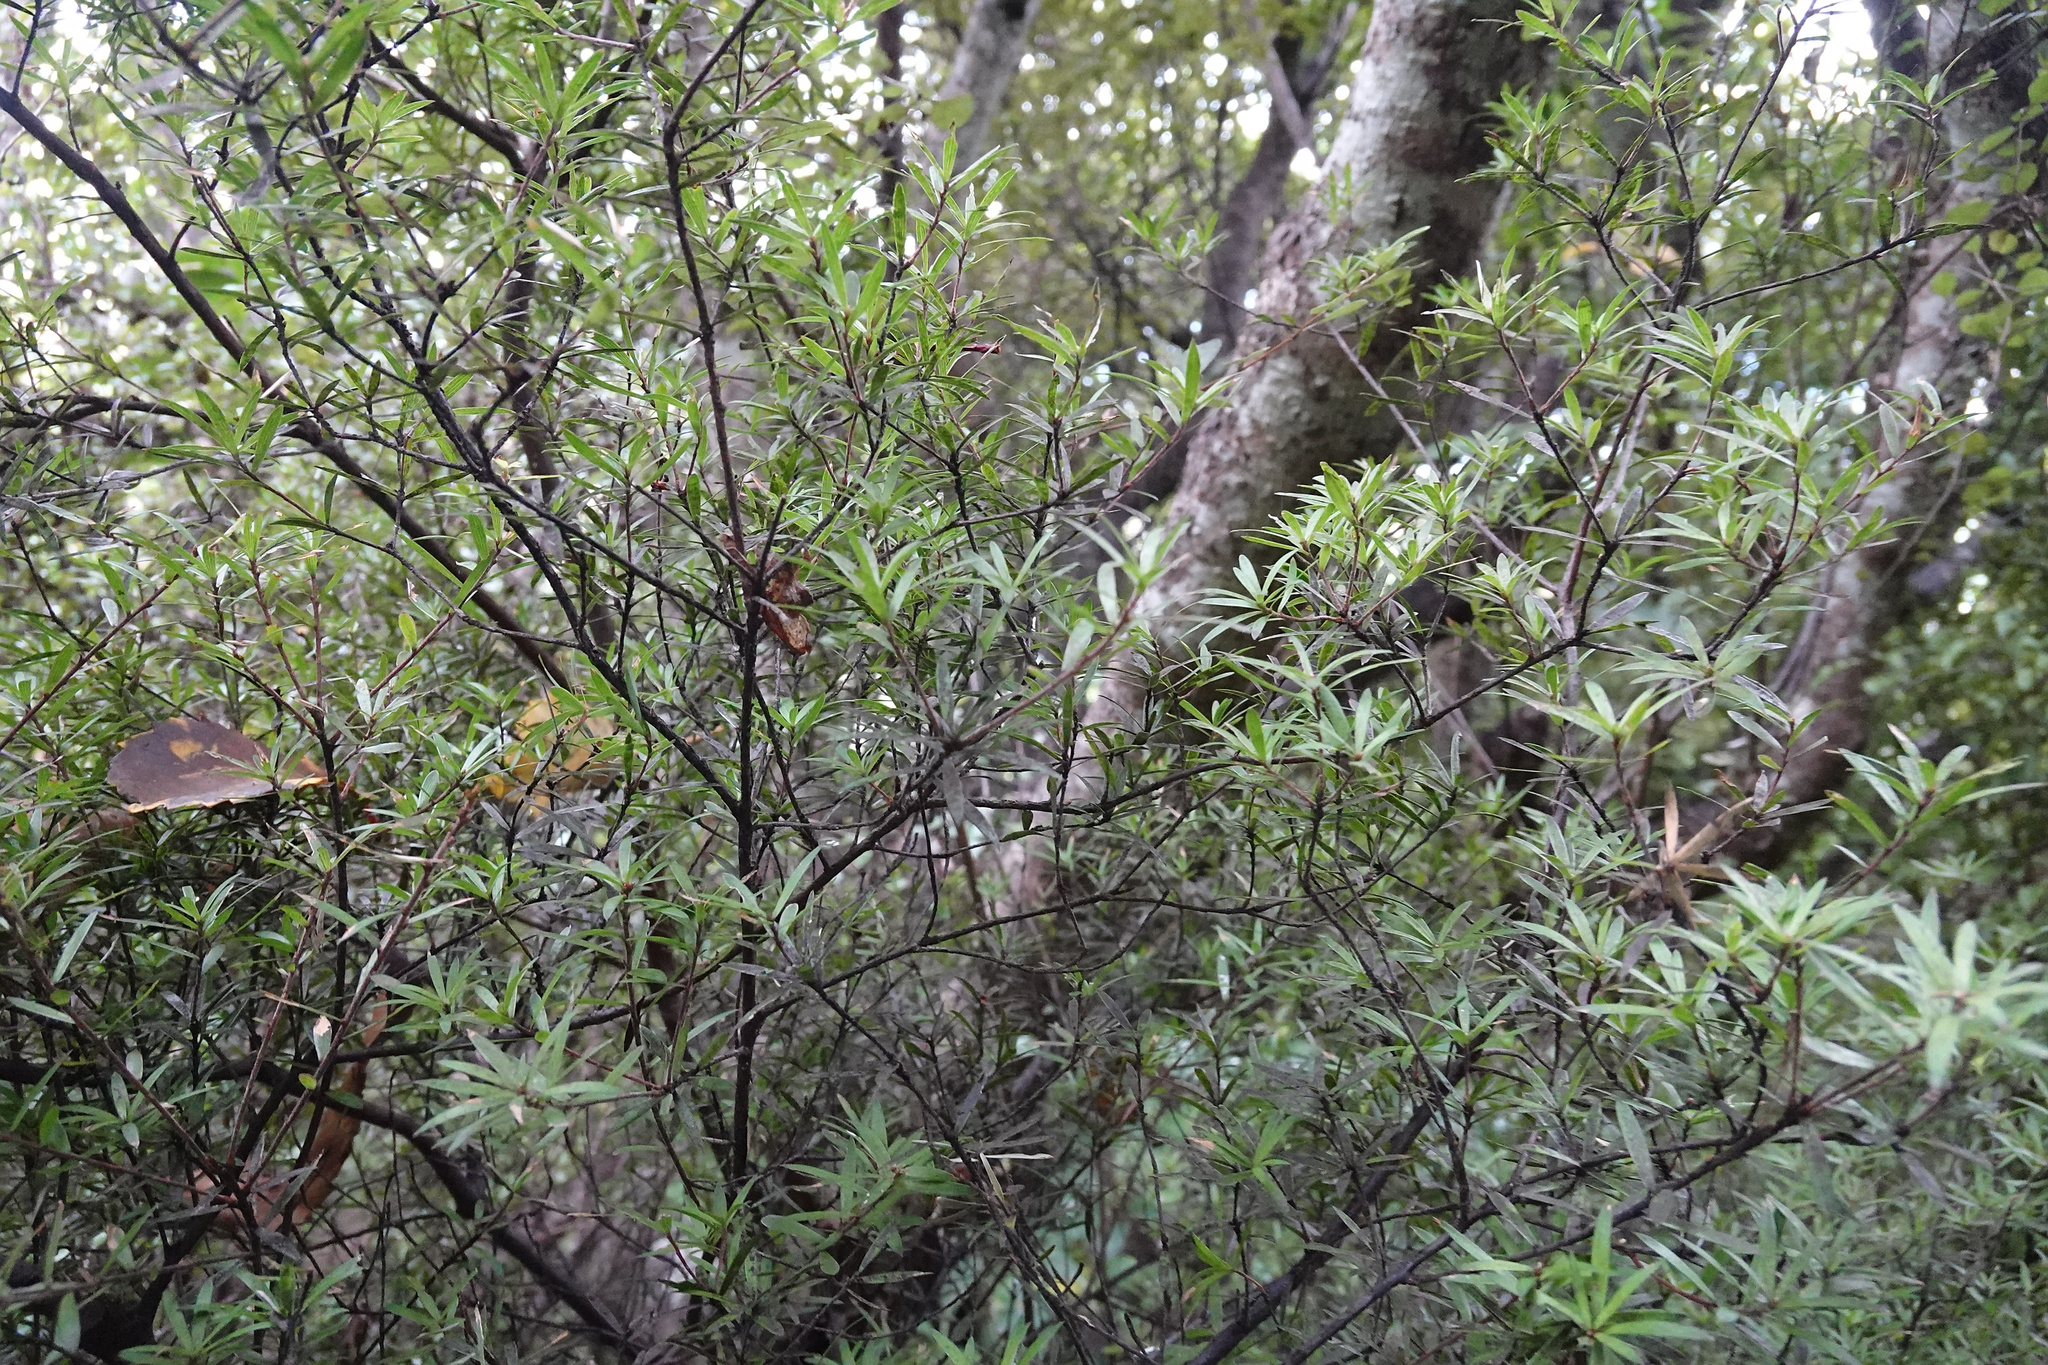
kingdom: Plantae
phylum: Tracheophyta
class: Magnoliopsida
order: Ericales
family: Ericaceae
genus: Leucopogon
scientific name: Leucopogon fasciculatus
